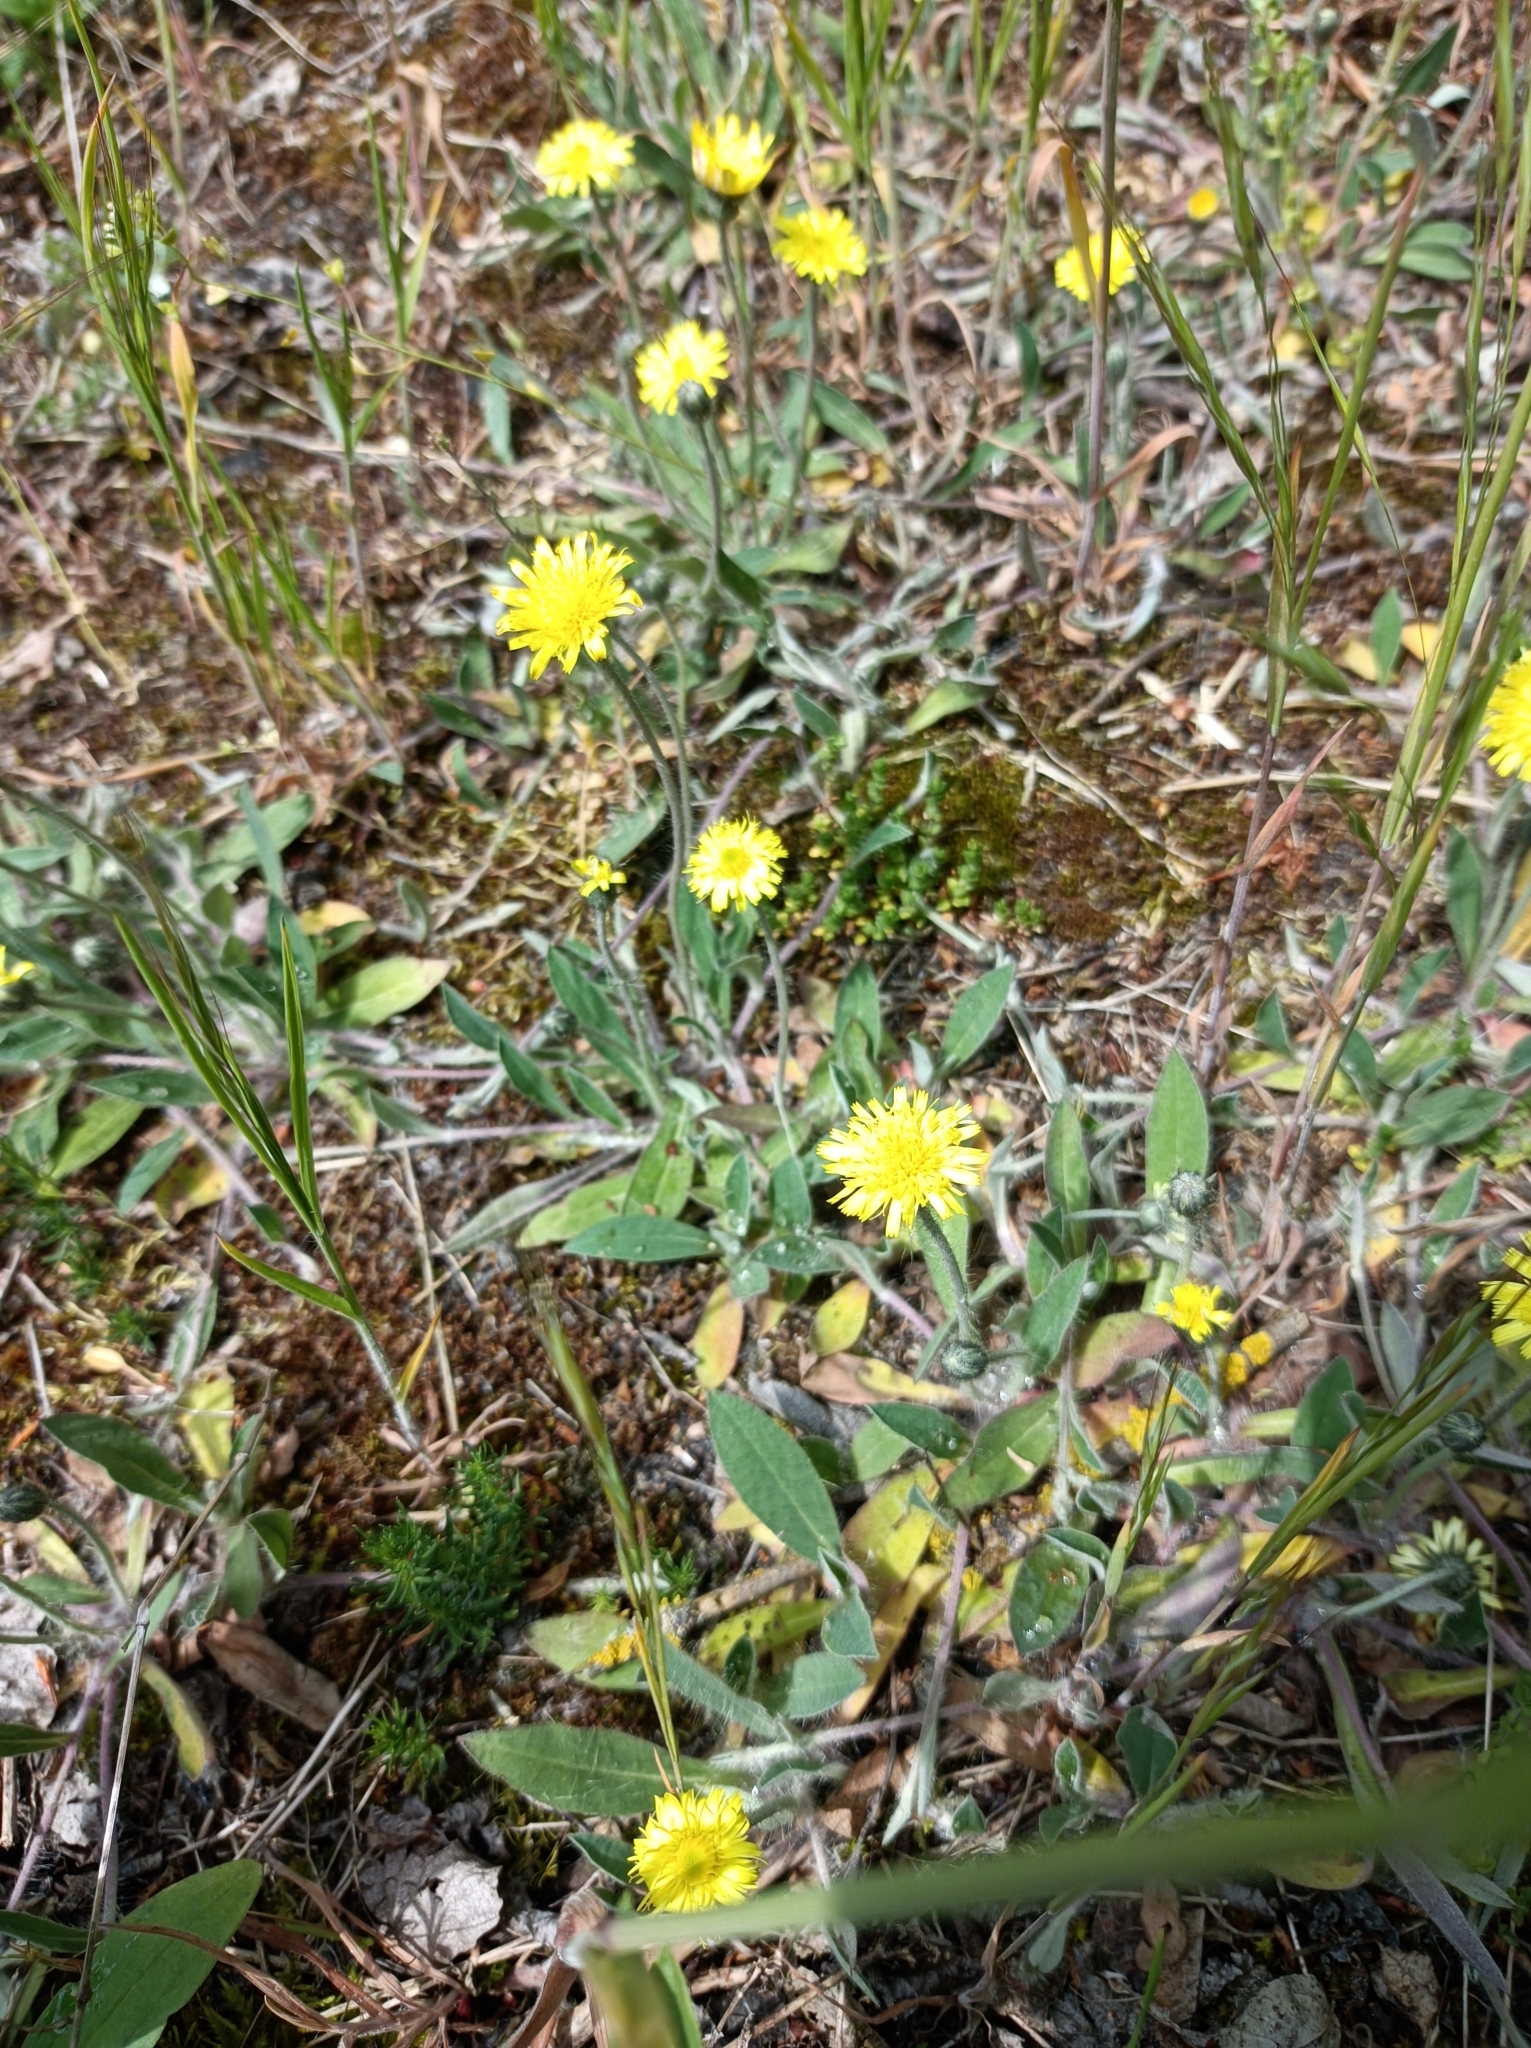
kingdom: Plantae
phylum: Tracheophyta
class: Magnoliopsida
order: Asterales
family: Asteraceae
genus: Pilosella
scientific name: Pilosella officinarum
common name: Mouse-ear hawkweed
